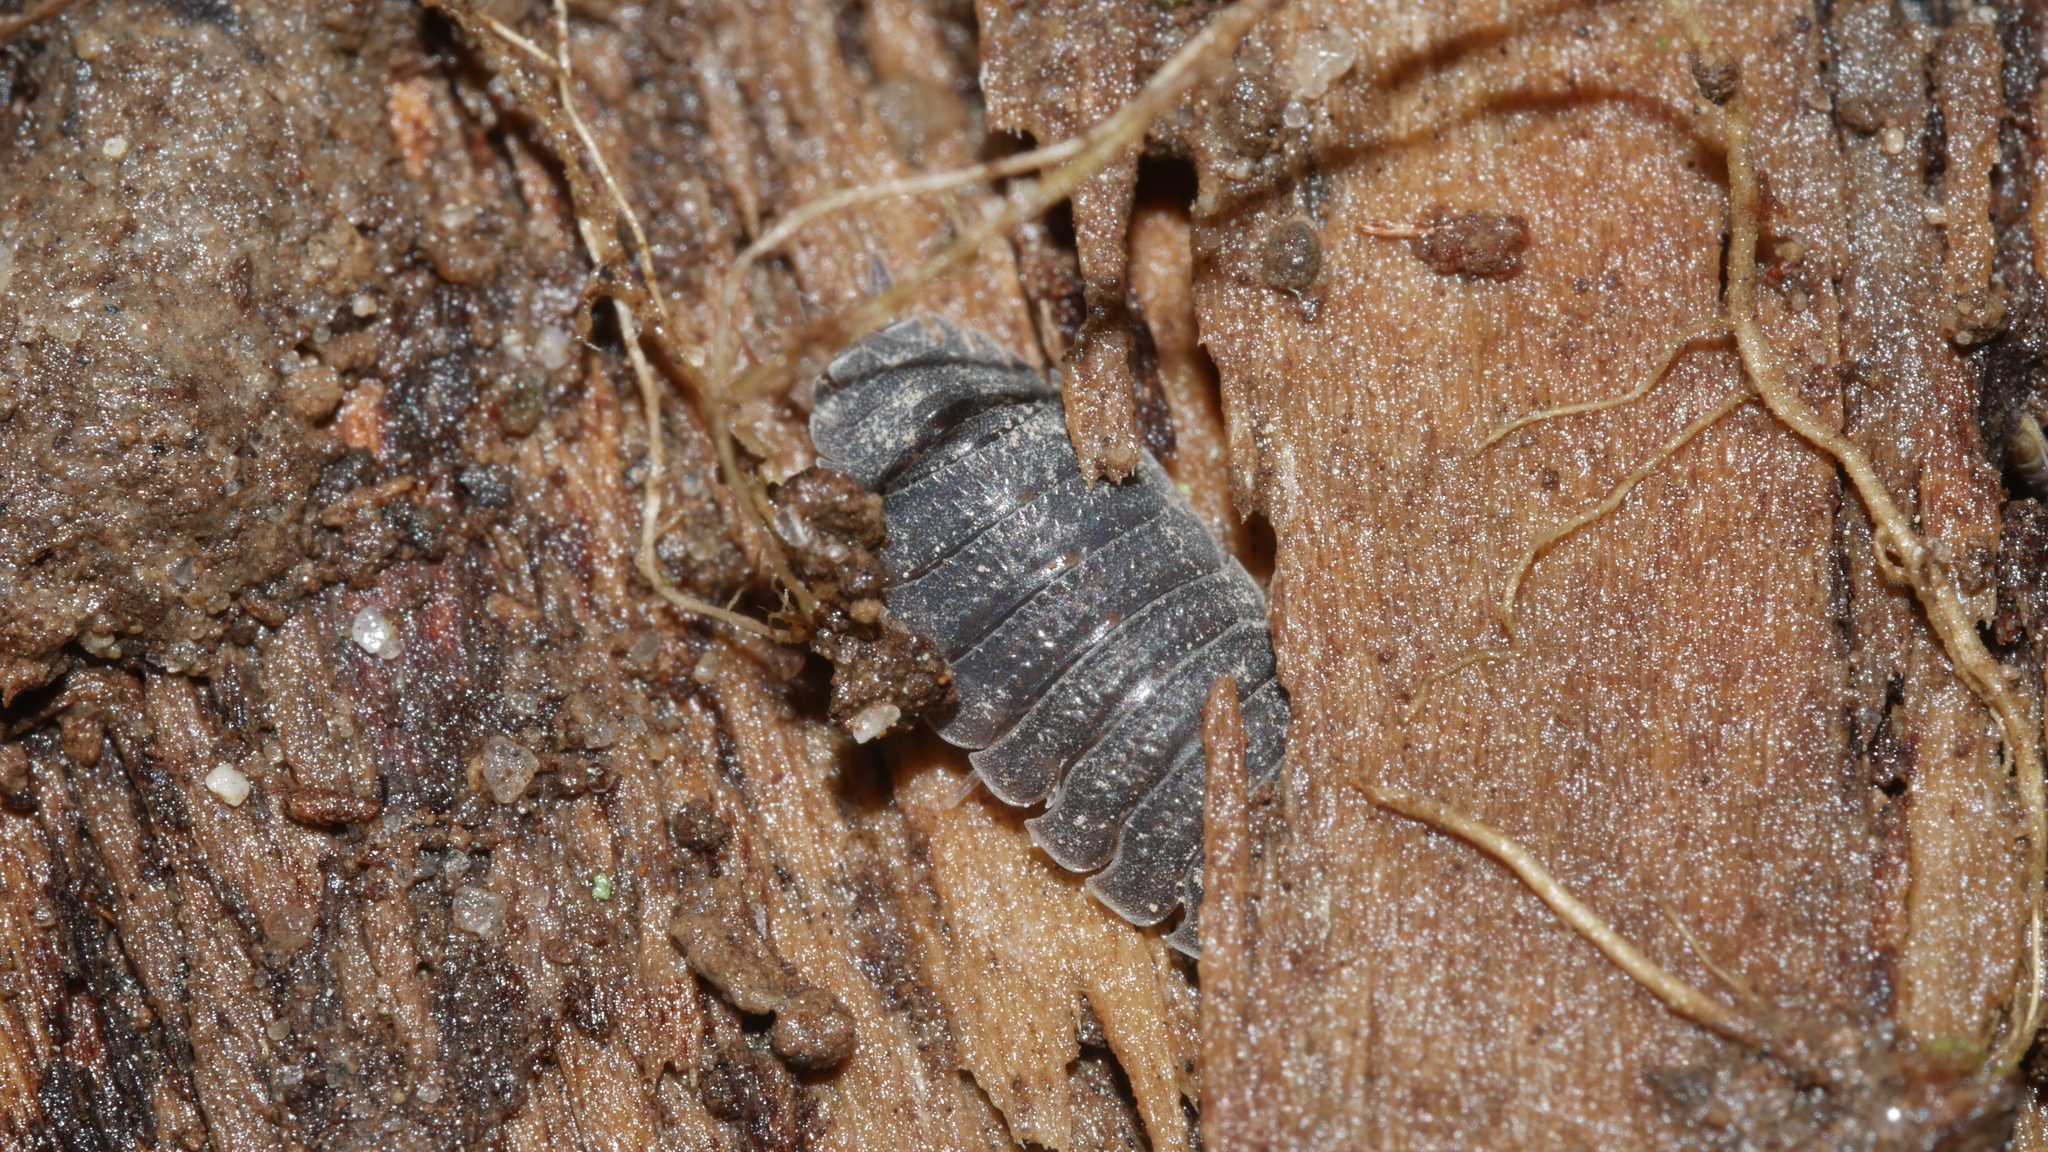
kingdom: Animalia
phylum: Arthropoda
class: Malacostraca
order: Isopoda
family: Porcellionidae
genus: Porcellio
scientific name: Porcellio scaber
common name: Common rough woodlouse
